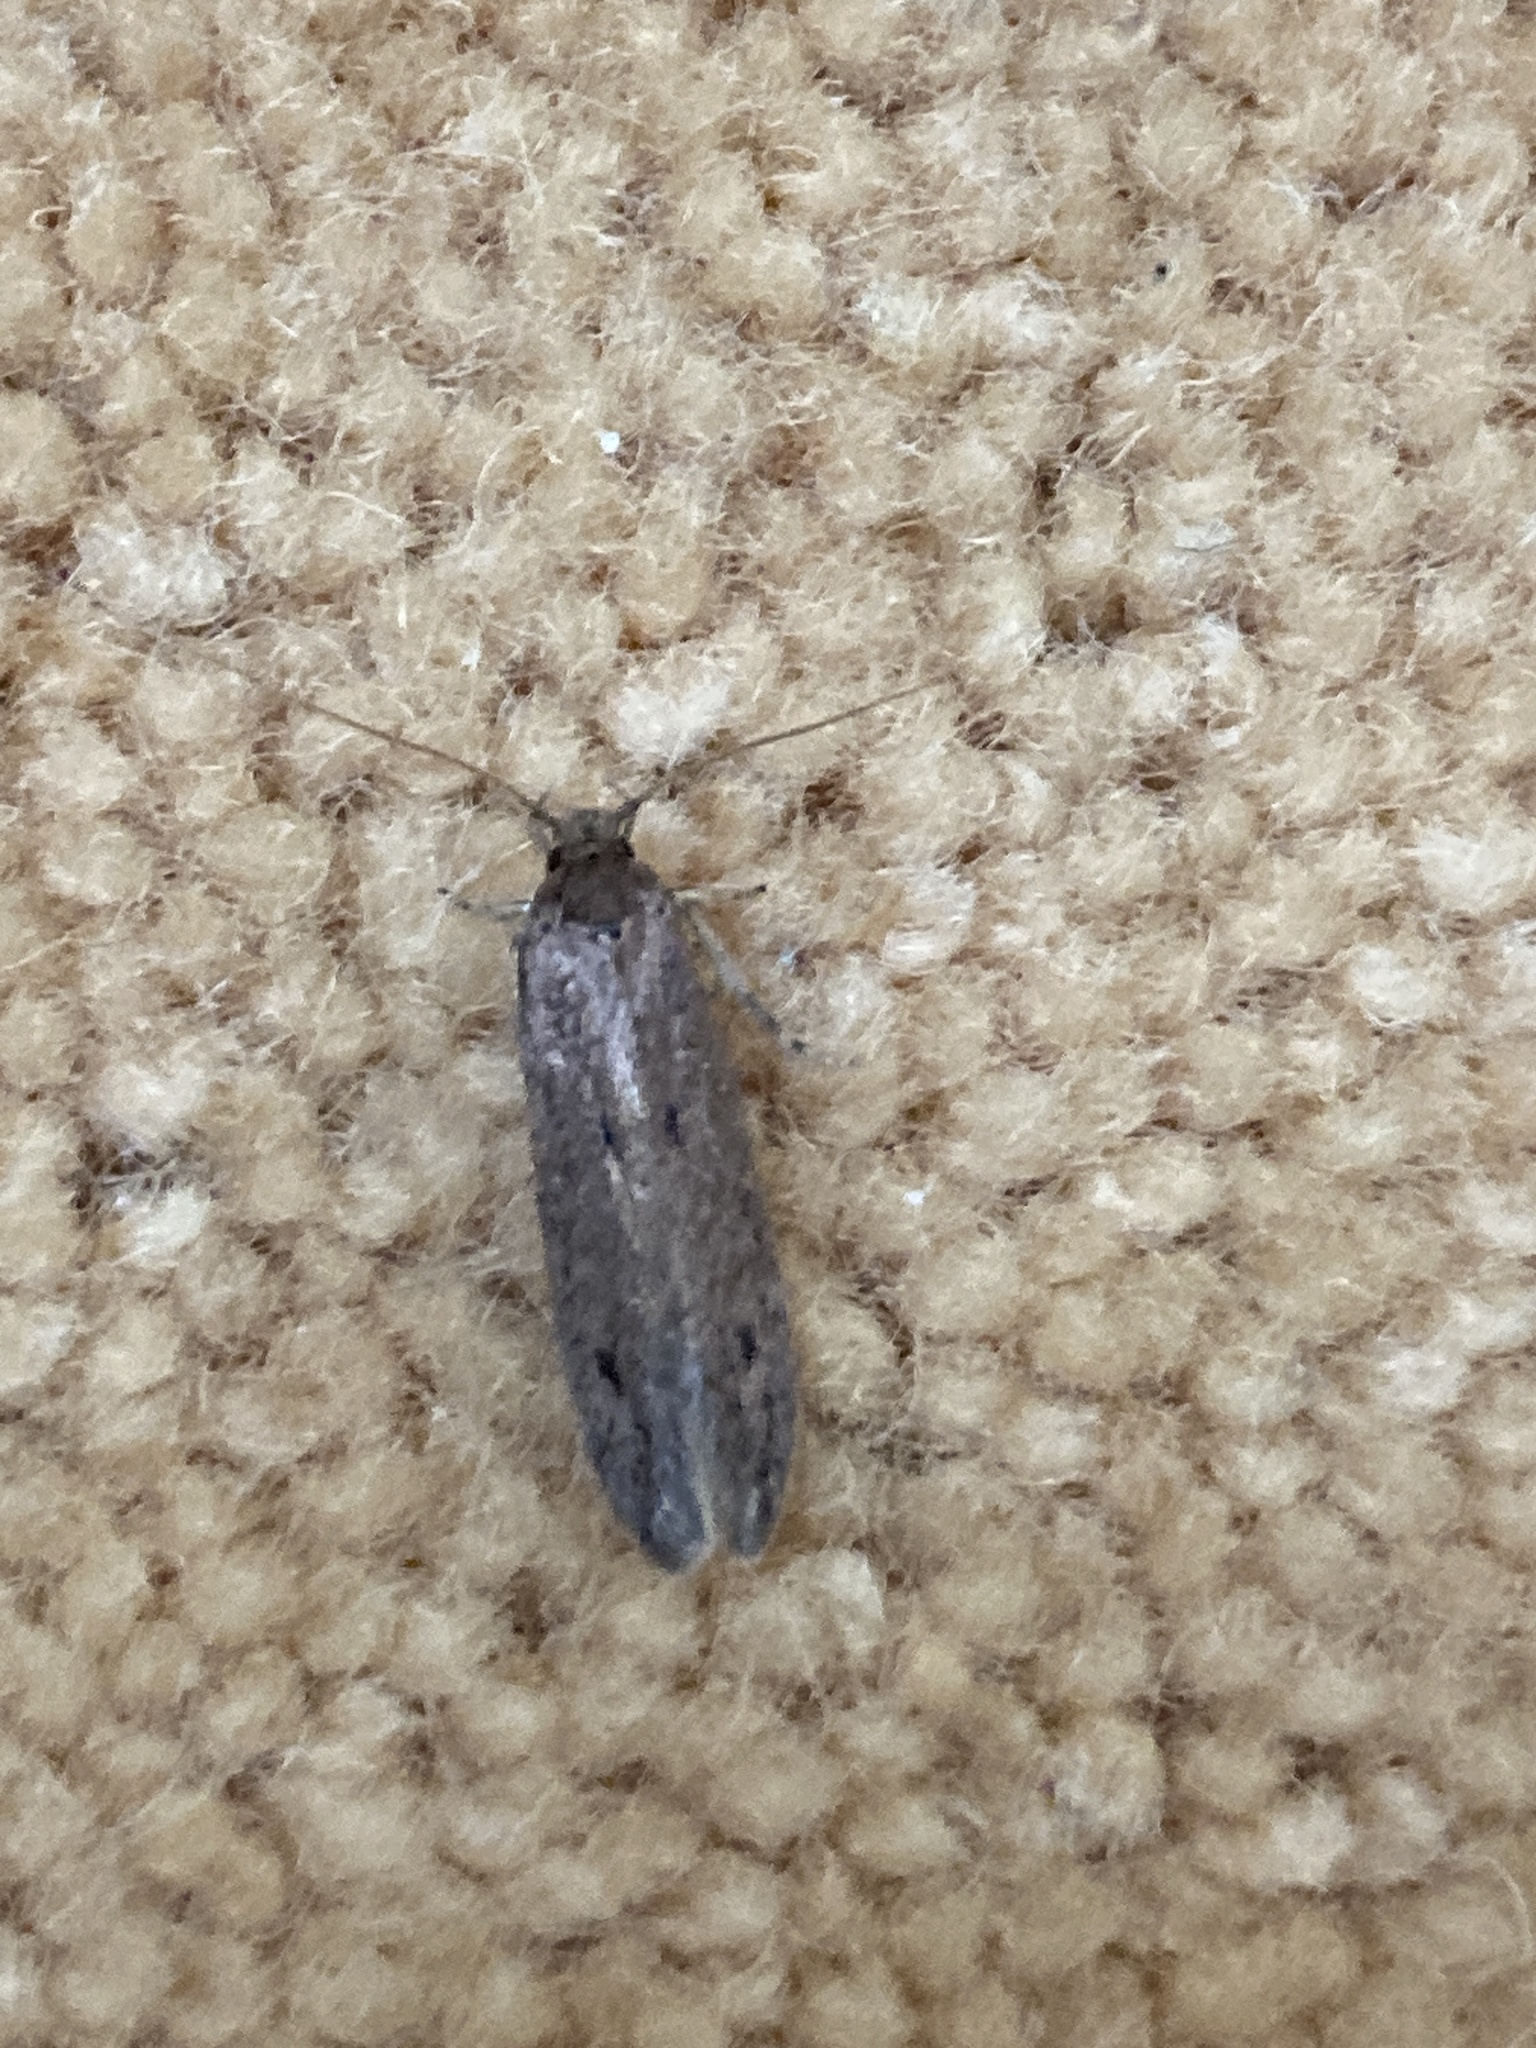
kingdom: Animalia
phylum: Arthropoda
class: Insecta
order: Lepidoptera
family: Oecophoridae
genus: Hofmannophila
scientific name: Hofmannophila pseudospretella
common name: Brown house moth
